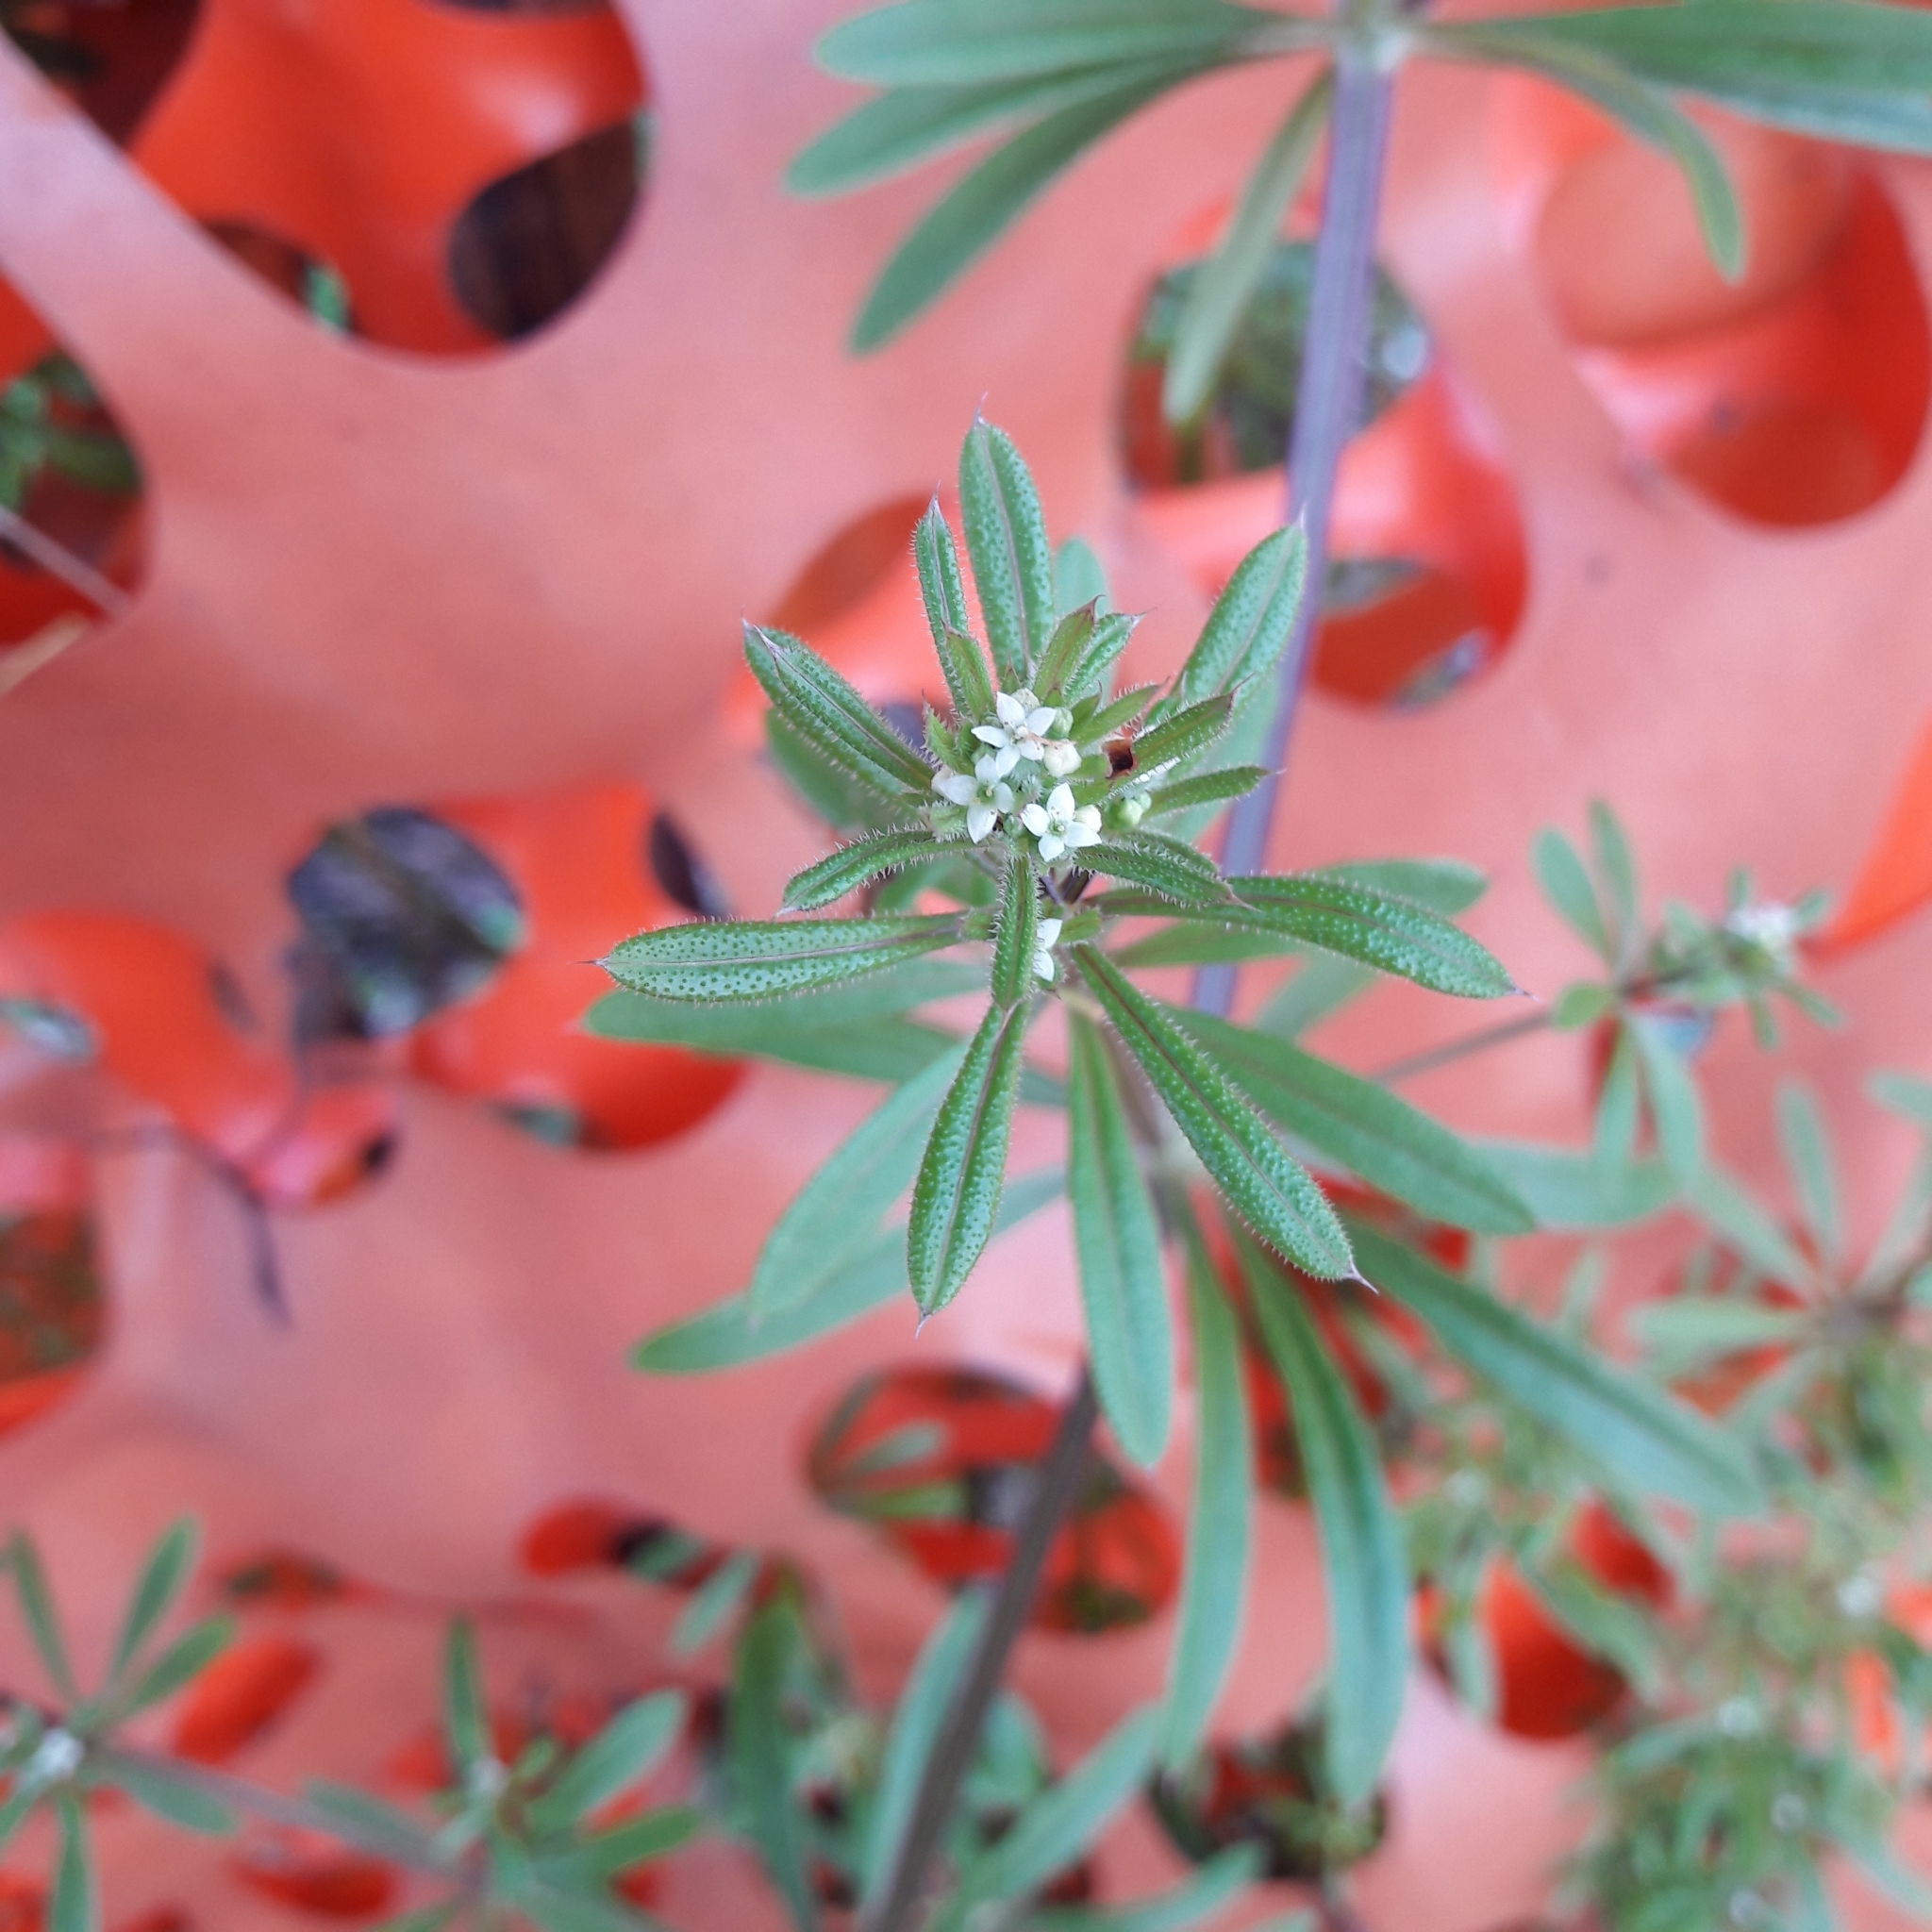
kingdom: Plantae
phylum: Tracheophyta
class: Magnoliopsida
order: Gentianales
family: Rubiaceae
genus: Galium
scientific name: Galium aparine
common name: Cleavers
